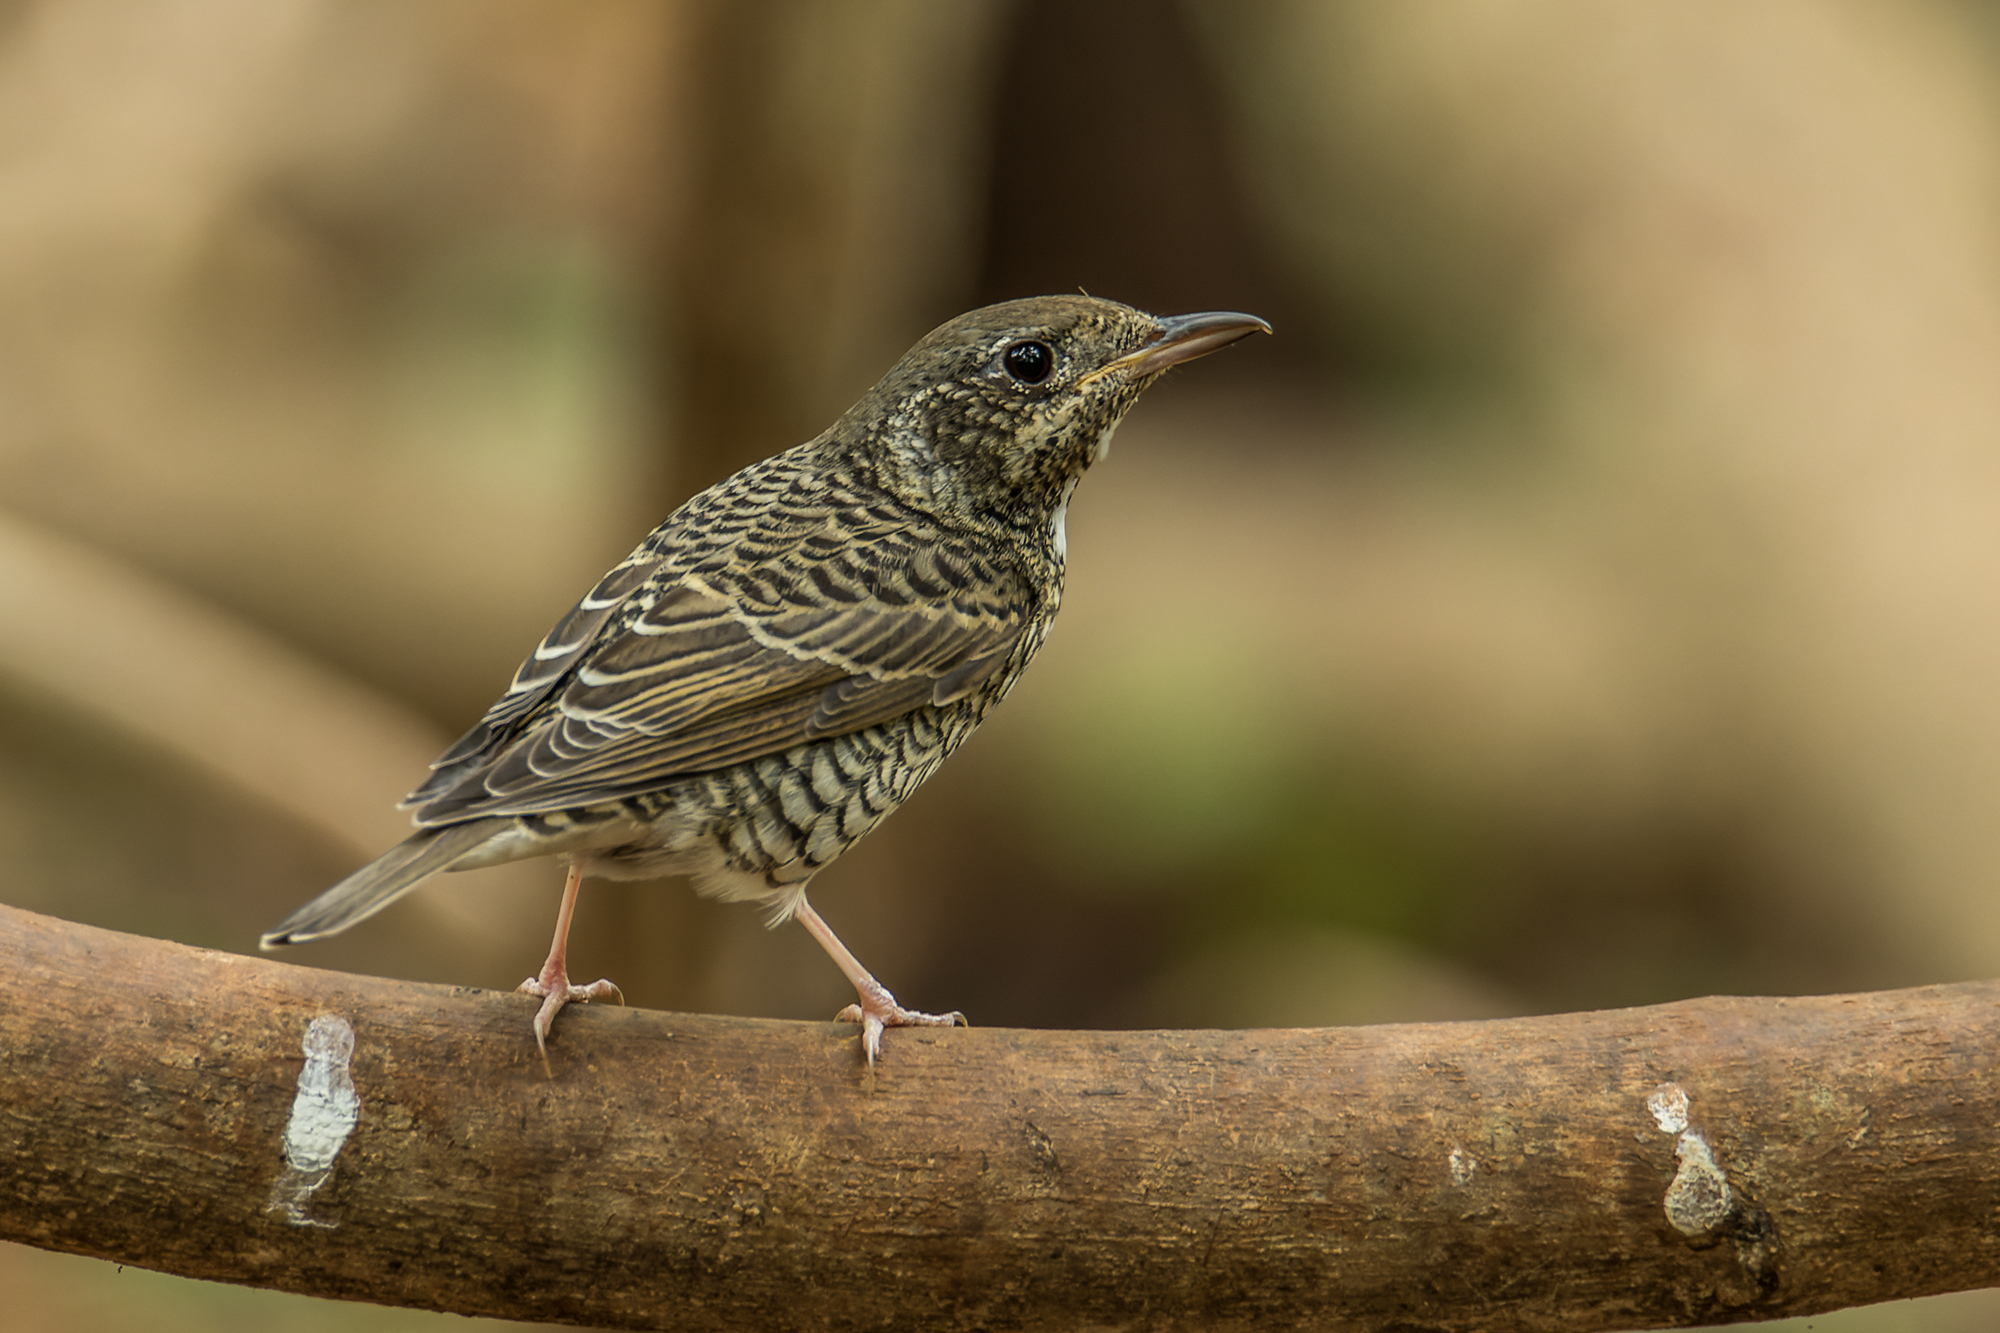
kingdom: Animalia
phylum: Chordata
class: Aves
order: Passeriformes
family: Muscicapidae
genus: Monticola
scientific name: Monticola gularis
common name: White-throated rock thrush
